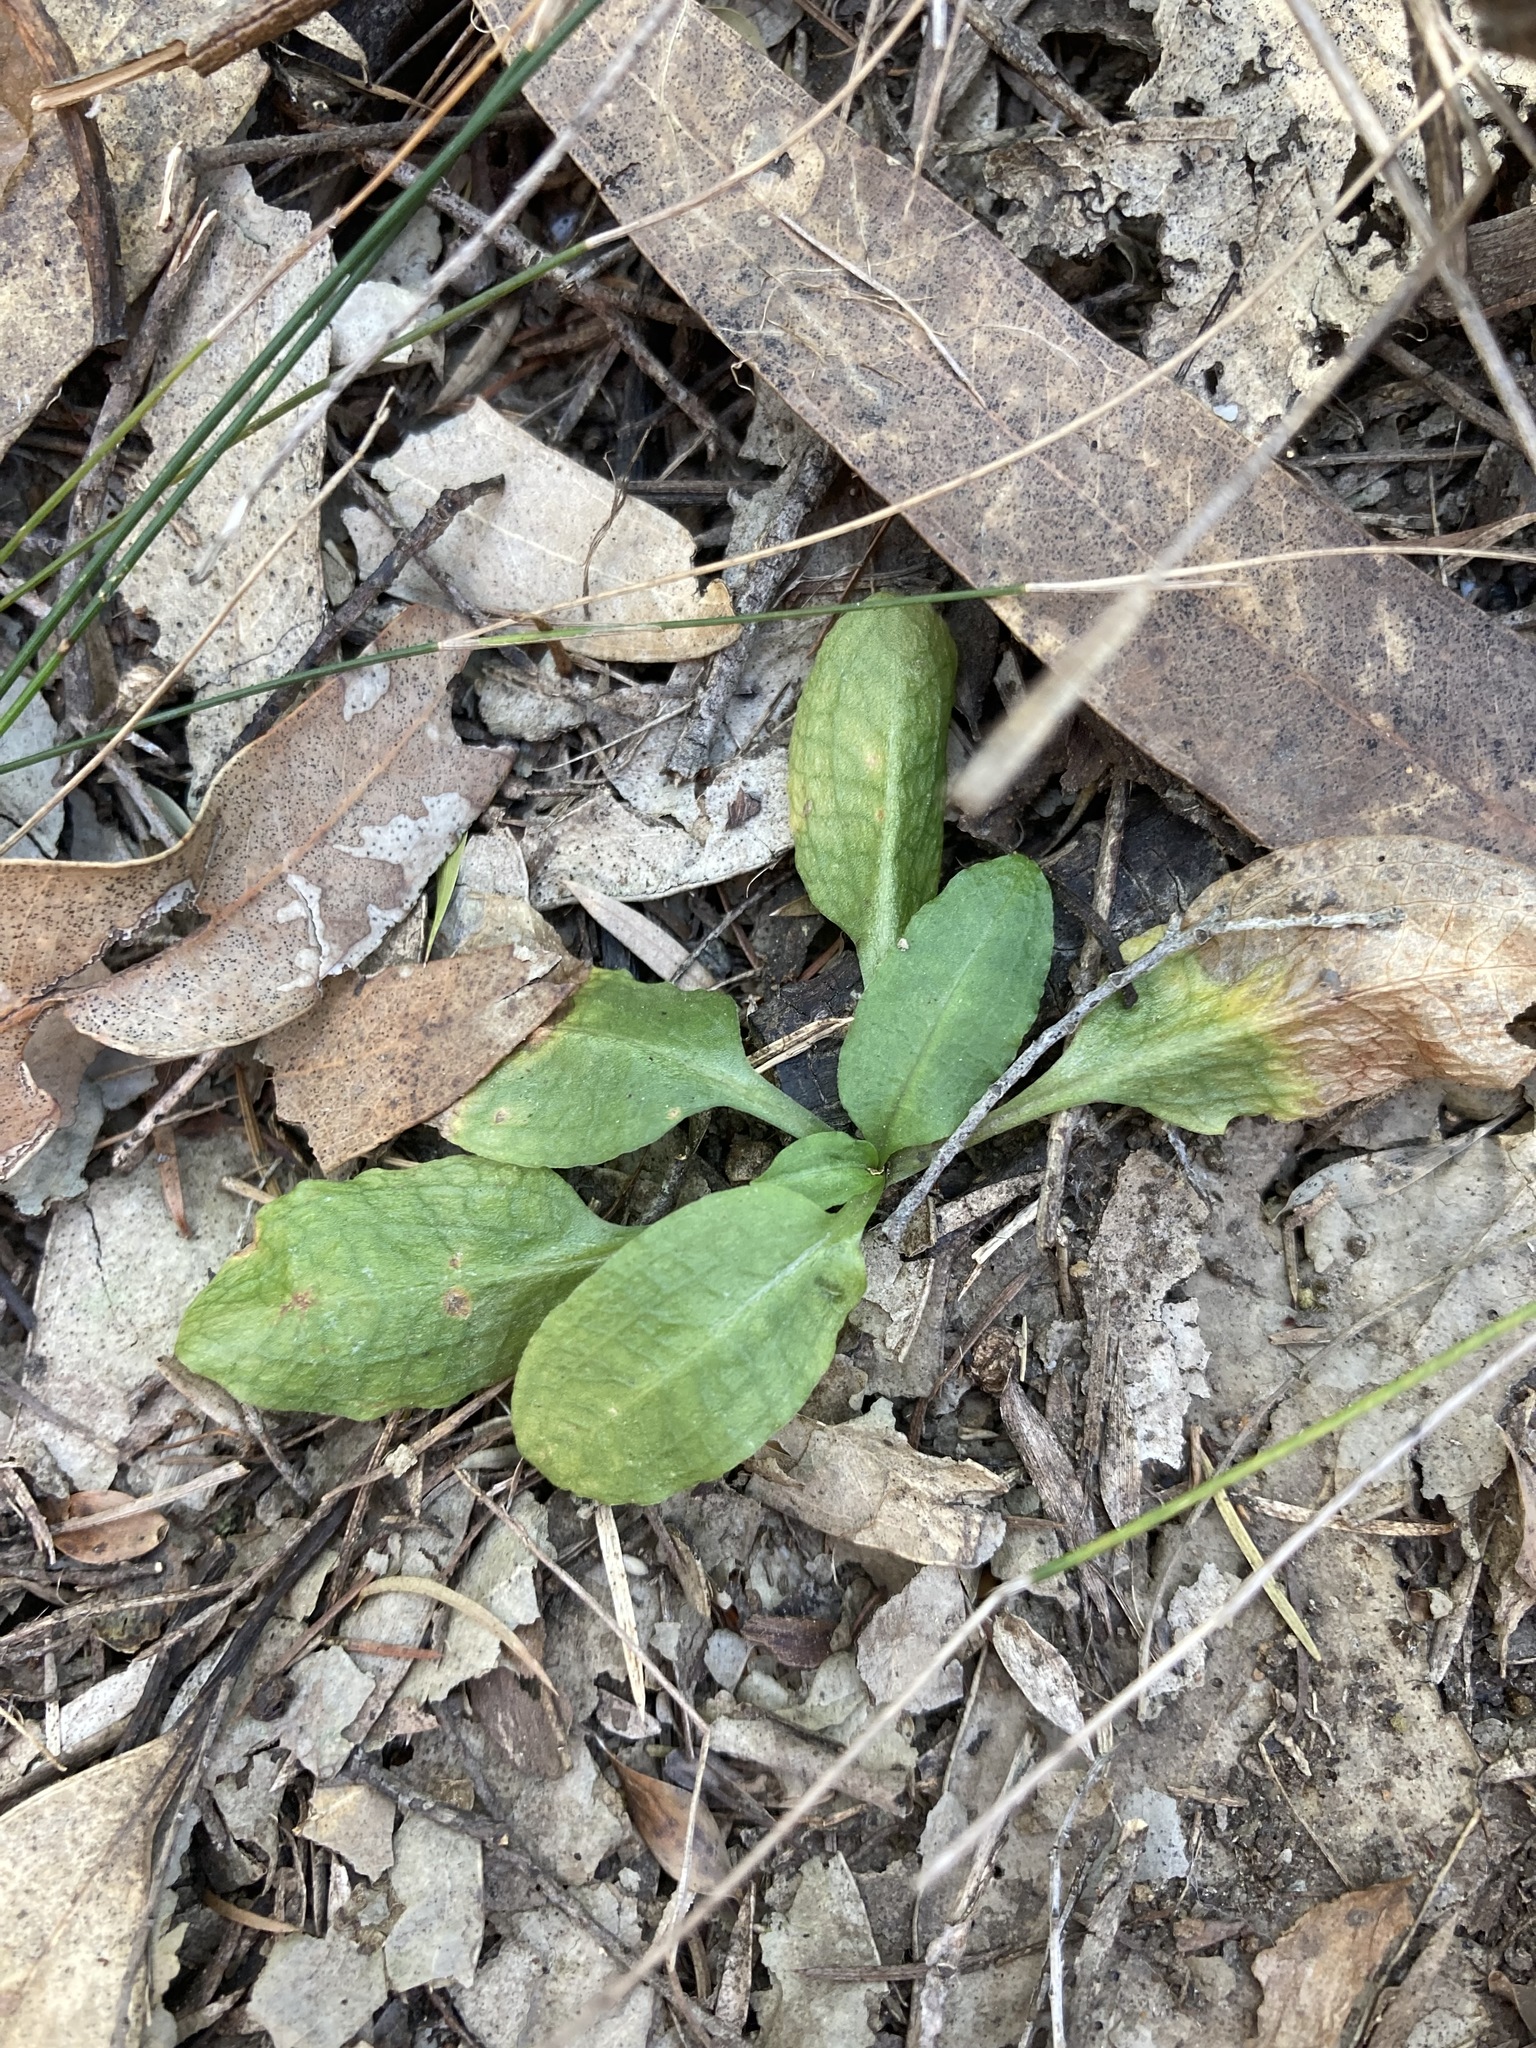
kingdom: Plantae
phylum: Tracheophyta
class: Liliopsida
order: Asparagales
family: Orchidaceae
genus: Pterostylis
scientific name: Pterostylis nutans
